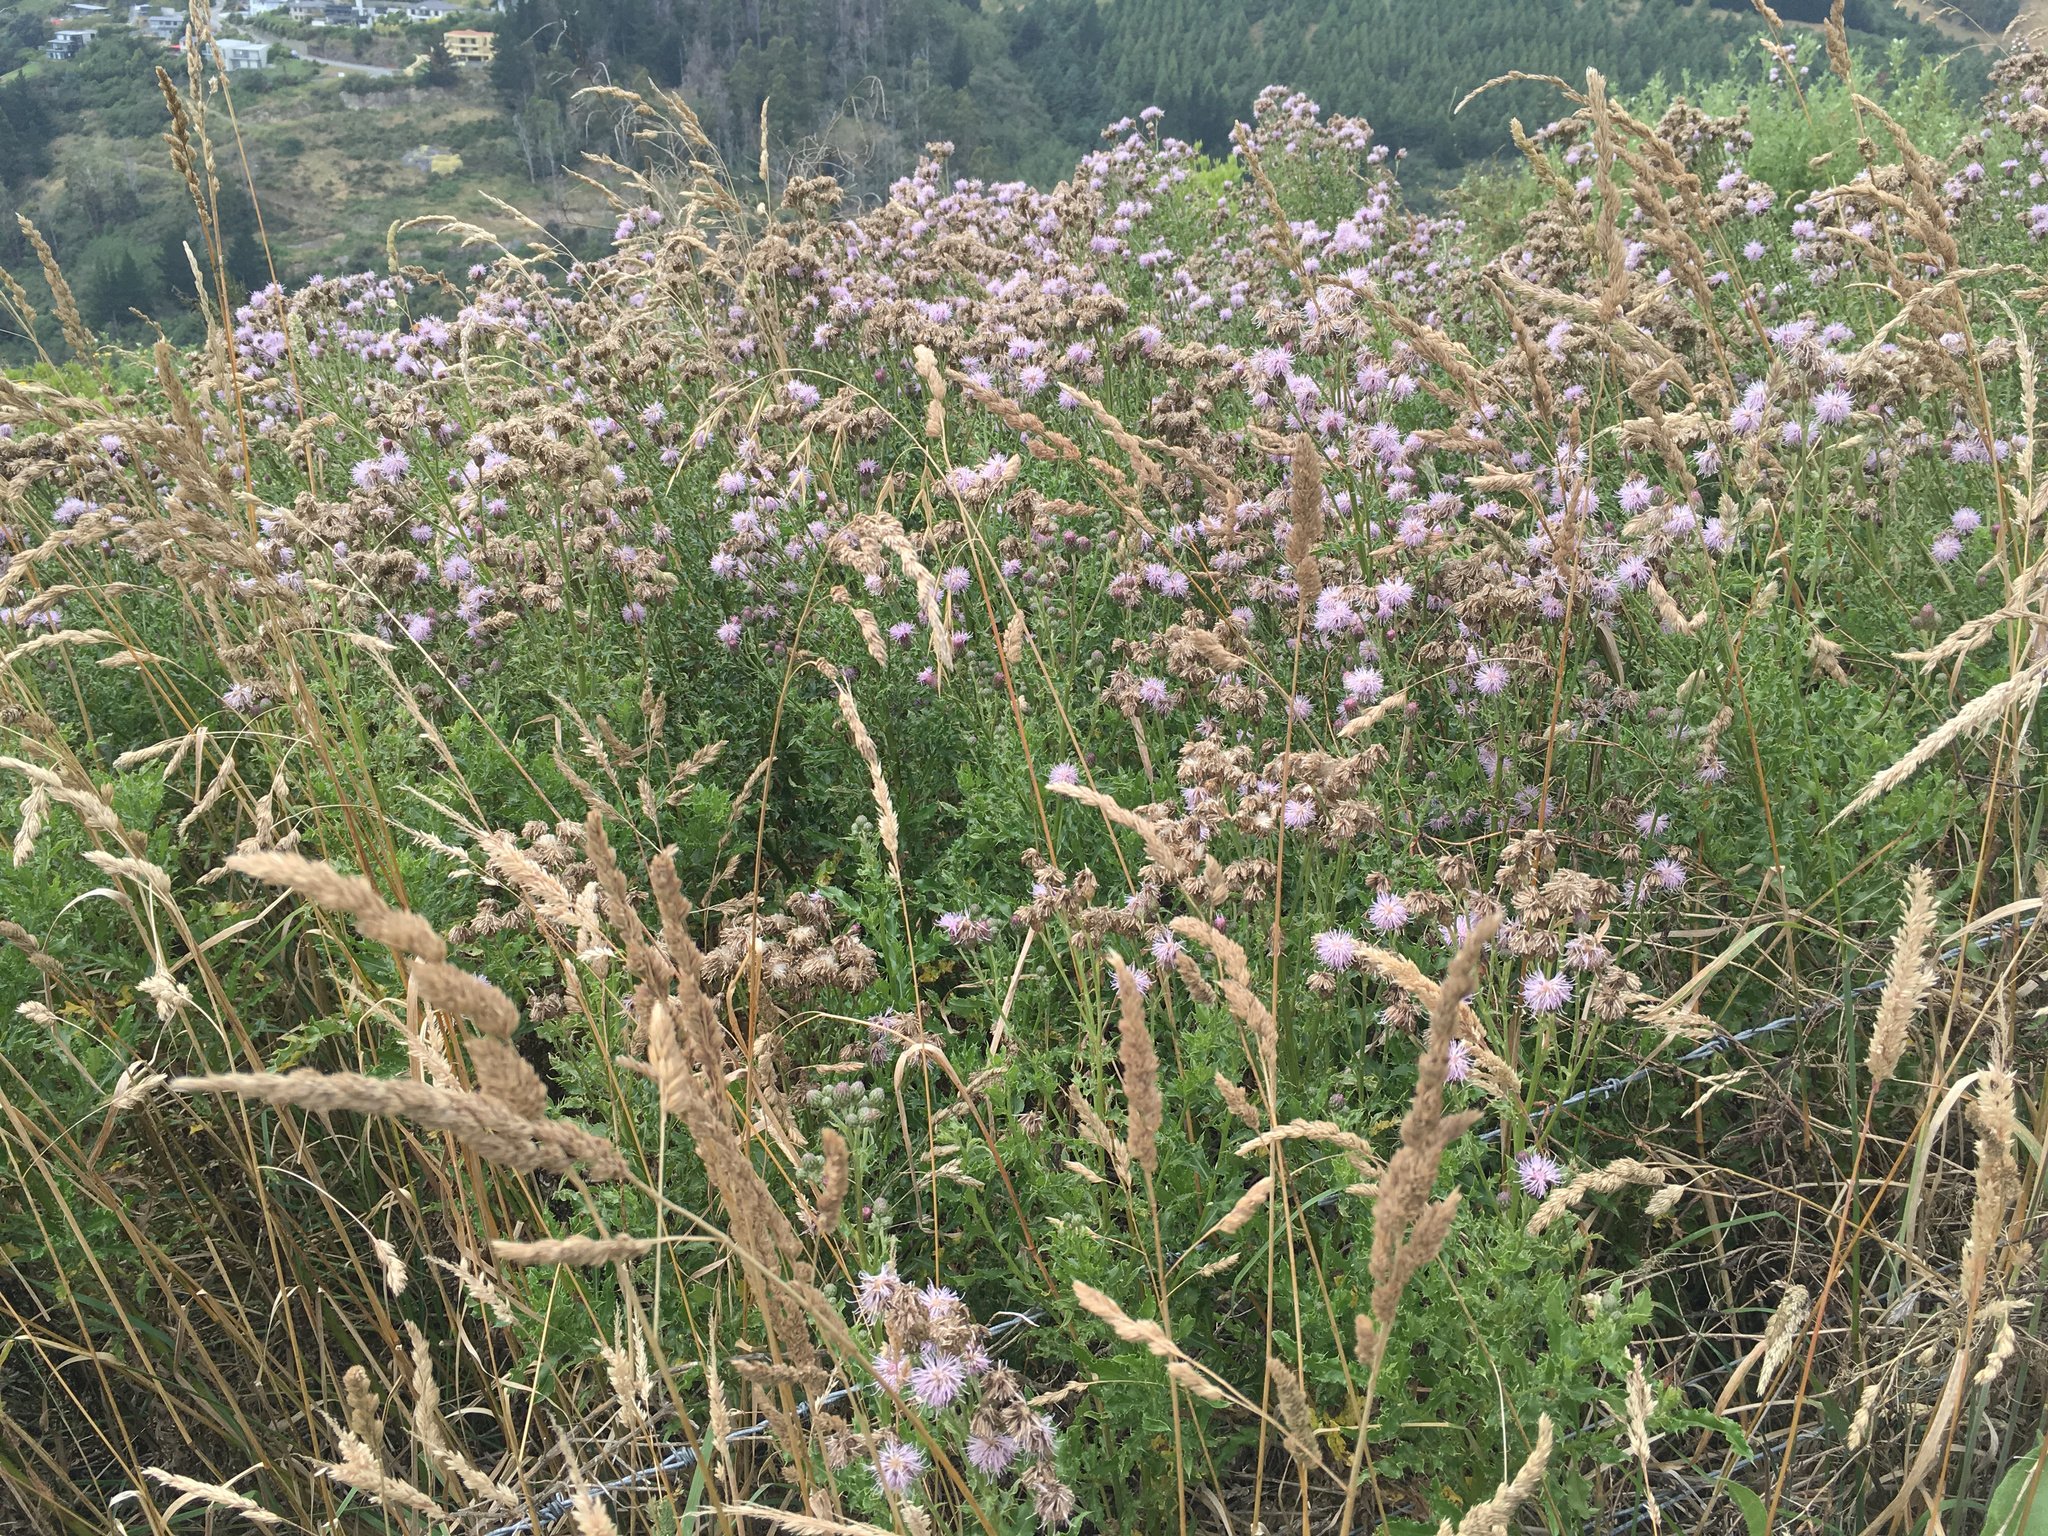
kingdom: Plantae
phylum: Tracheophyta
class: Magnoliopsida
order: Asterales
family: Asteraceae
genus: Cirsium
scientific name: Cirsium arvense
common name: Creeping thistle
